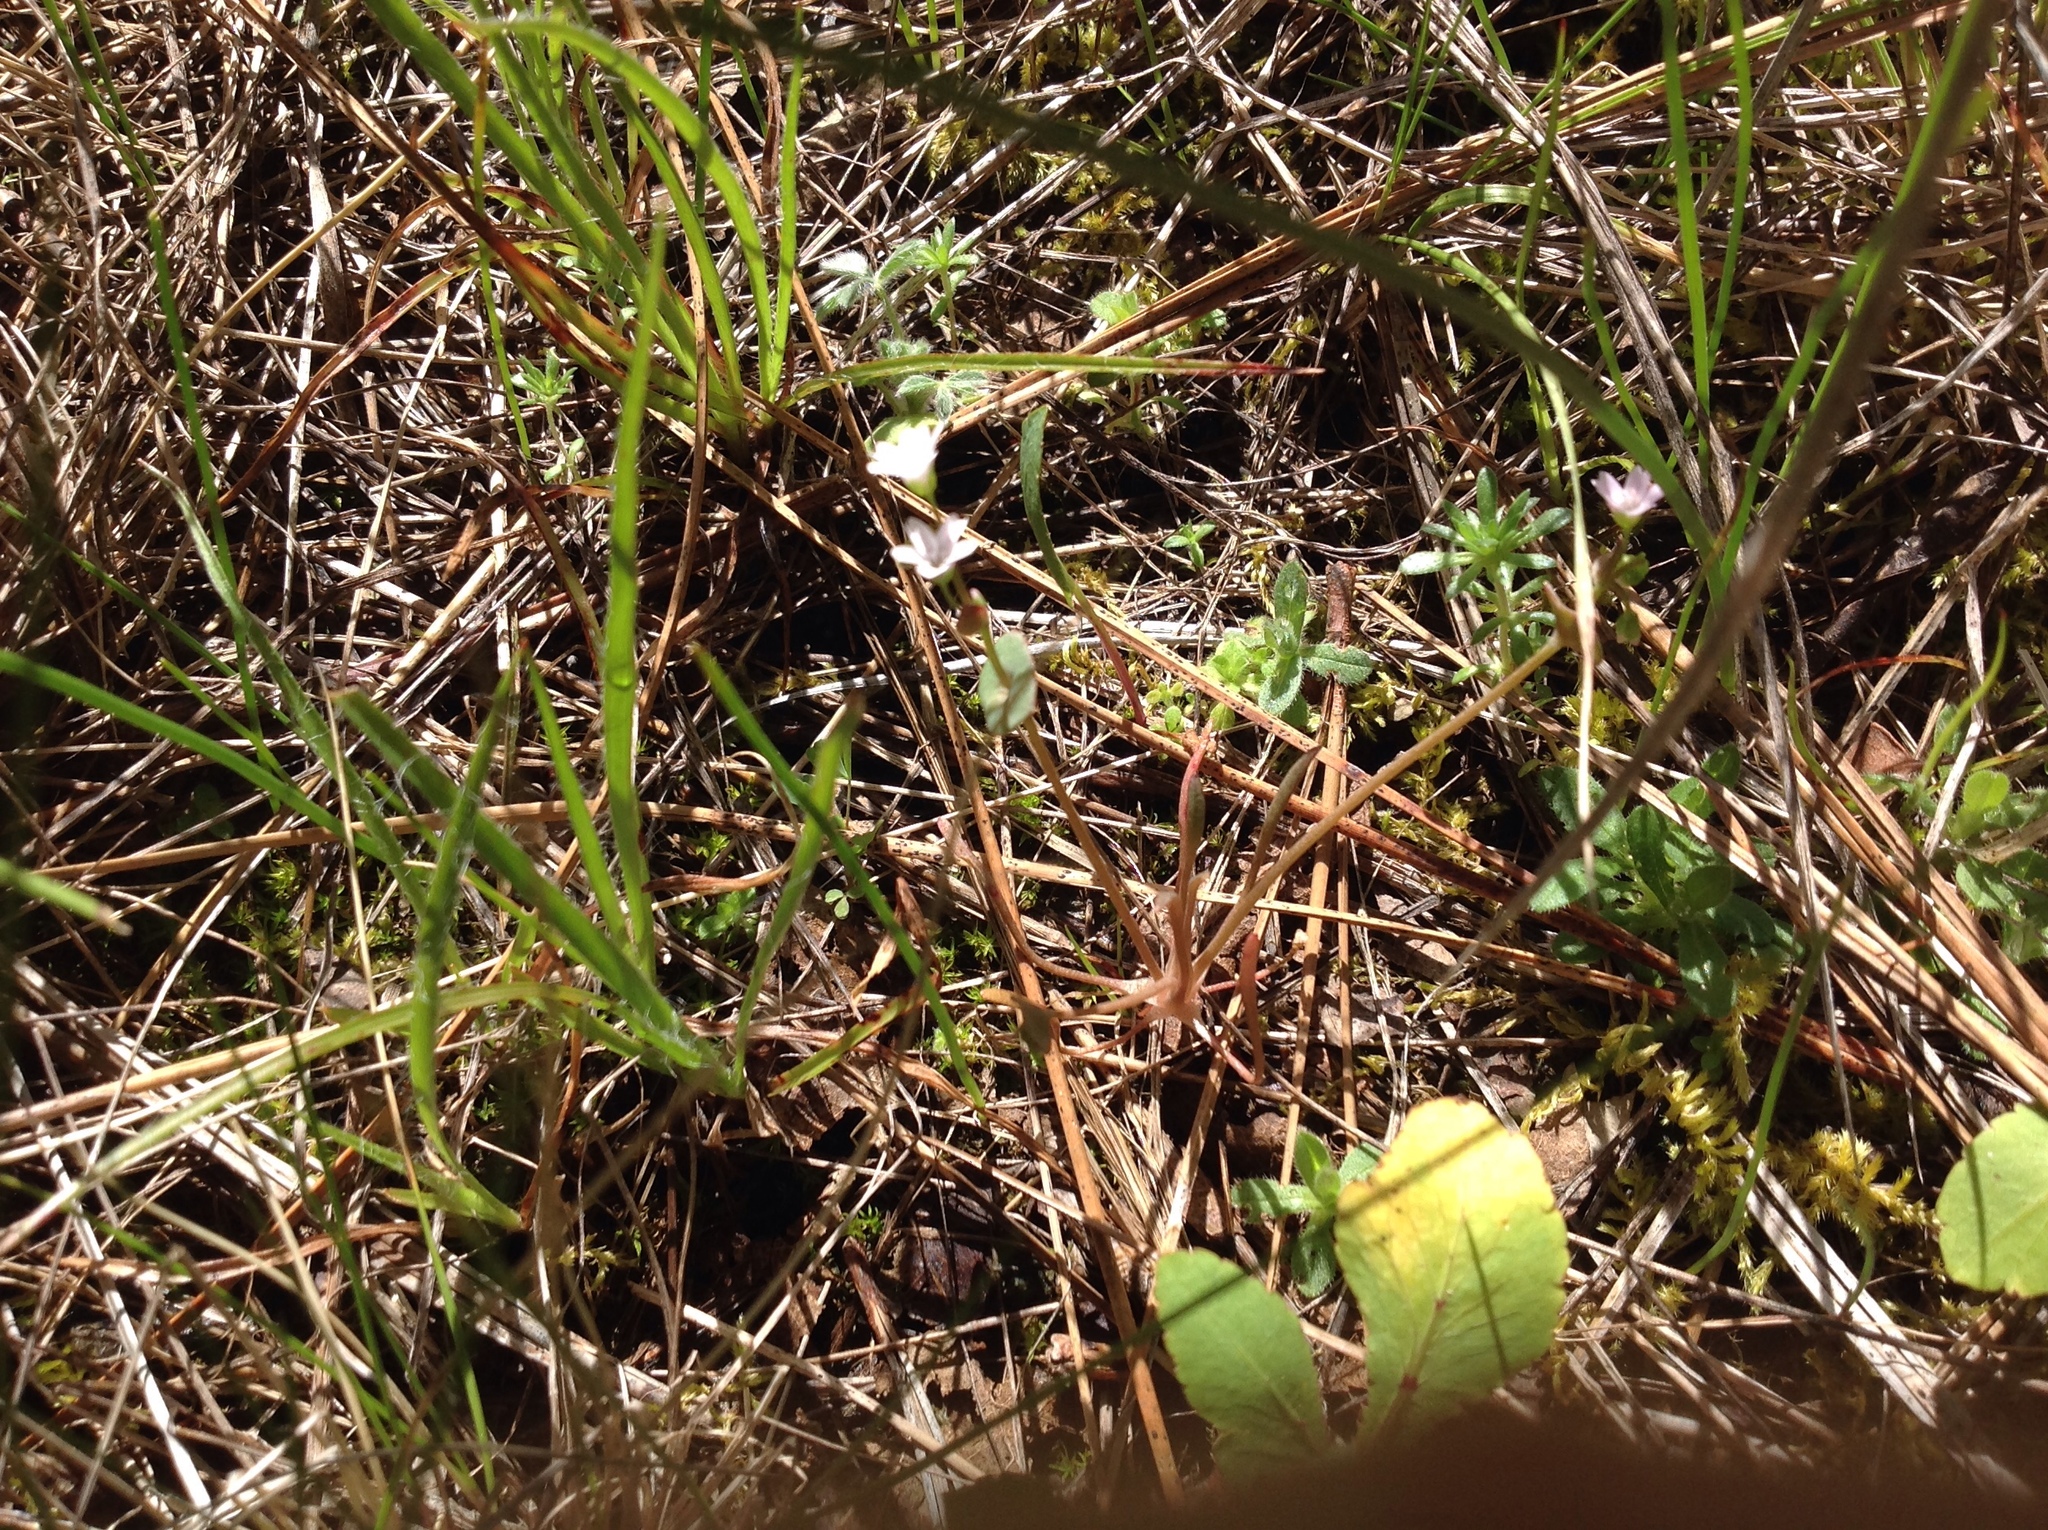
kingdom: Plantae
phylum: Tracheophyta
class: Magnoliopsida
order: Caryophyllales
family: Montiaceae
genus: Claytonia
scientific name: Claytonia parviflora
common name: Indian-lettuce
